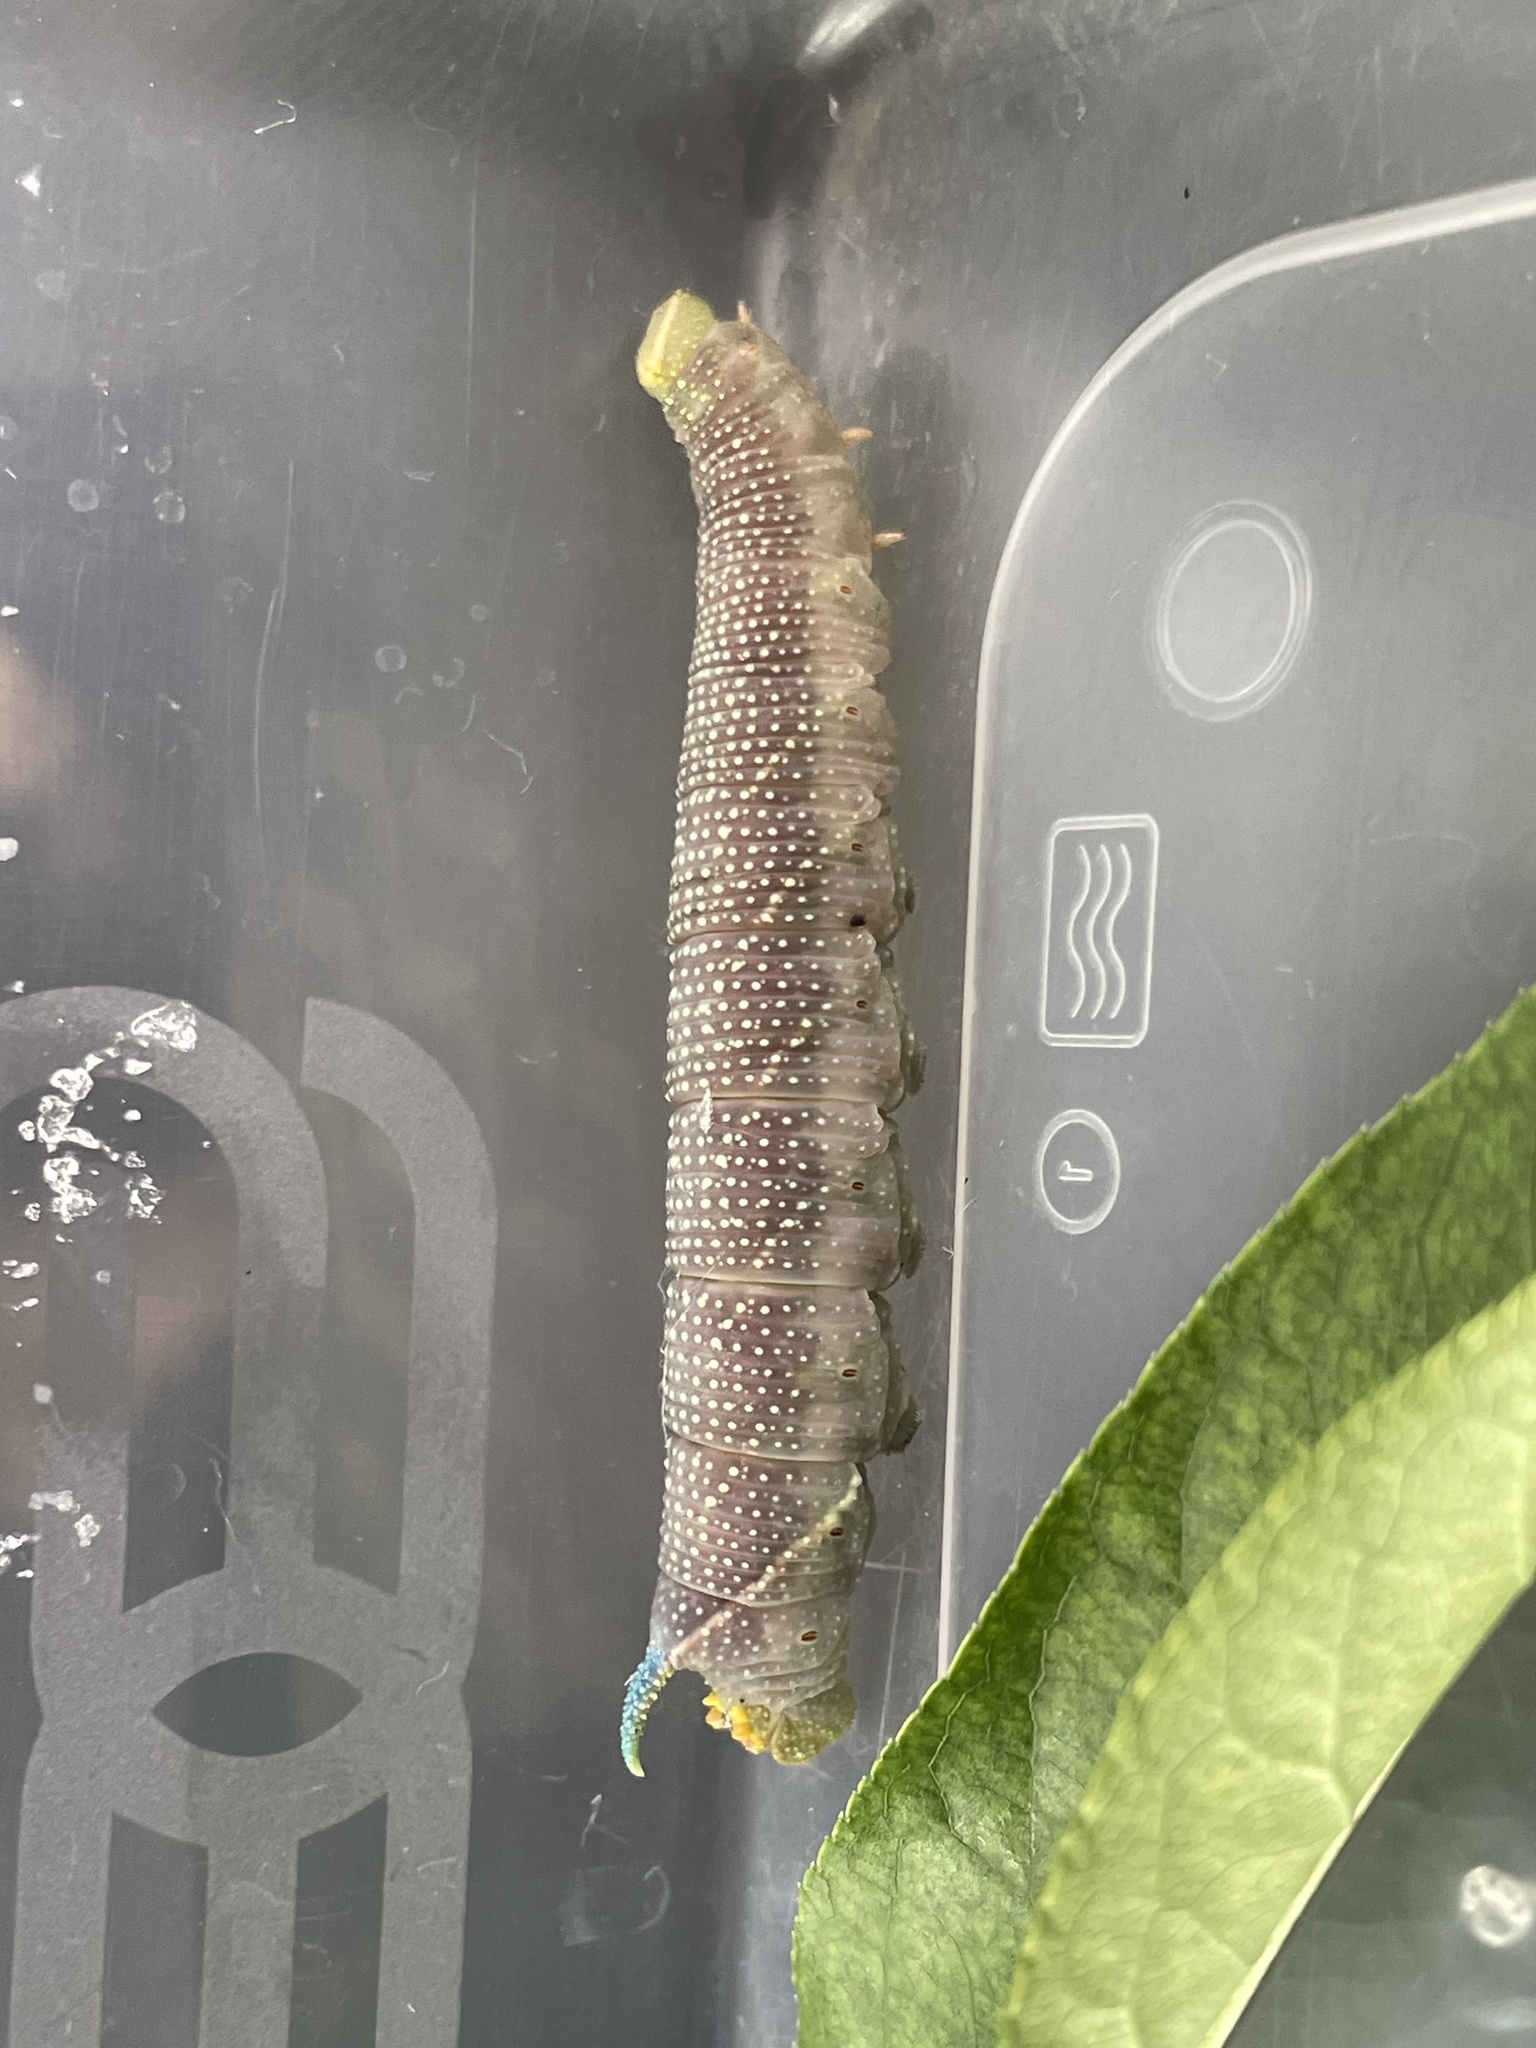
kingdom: Animalia
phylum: Arthropoda
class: Insecta
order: Lepidoptera
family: Sphingidae
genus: Mimas
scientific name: Mimas tiliae
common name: Lime hawk-moth
